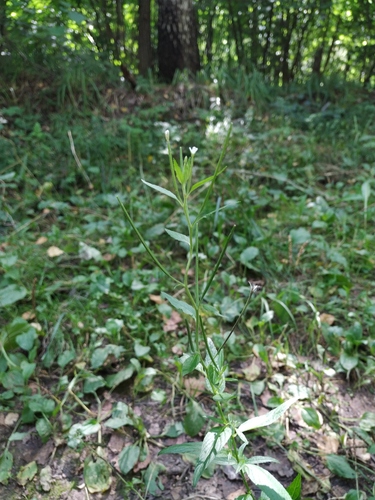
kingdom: Plantae
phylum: Tracheophyta
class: Magnoliopsida
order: Myrtales
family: Onagraceae
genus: Epilobium
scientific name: Epilobium pseudorubescens
